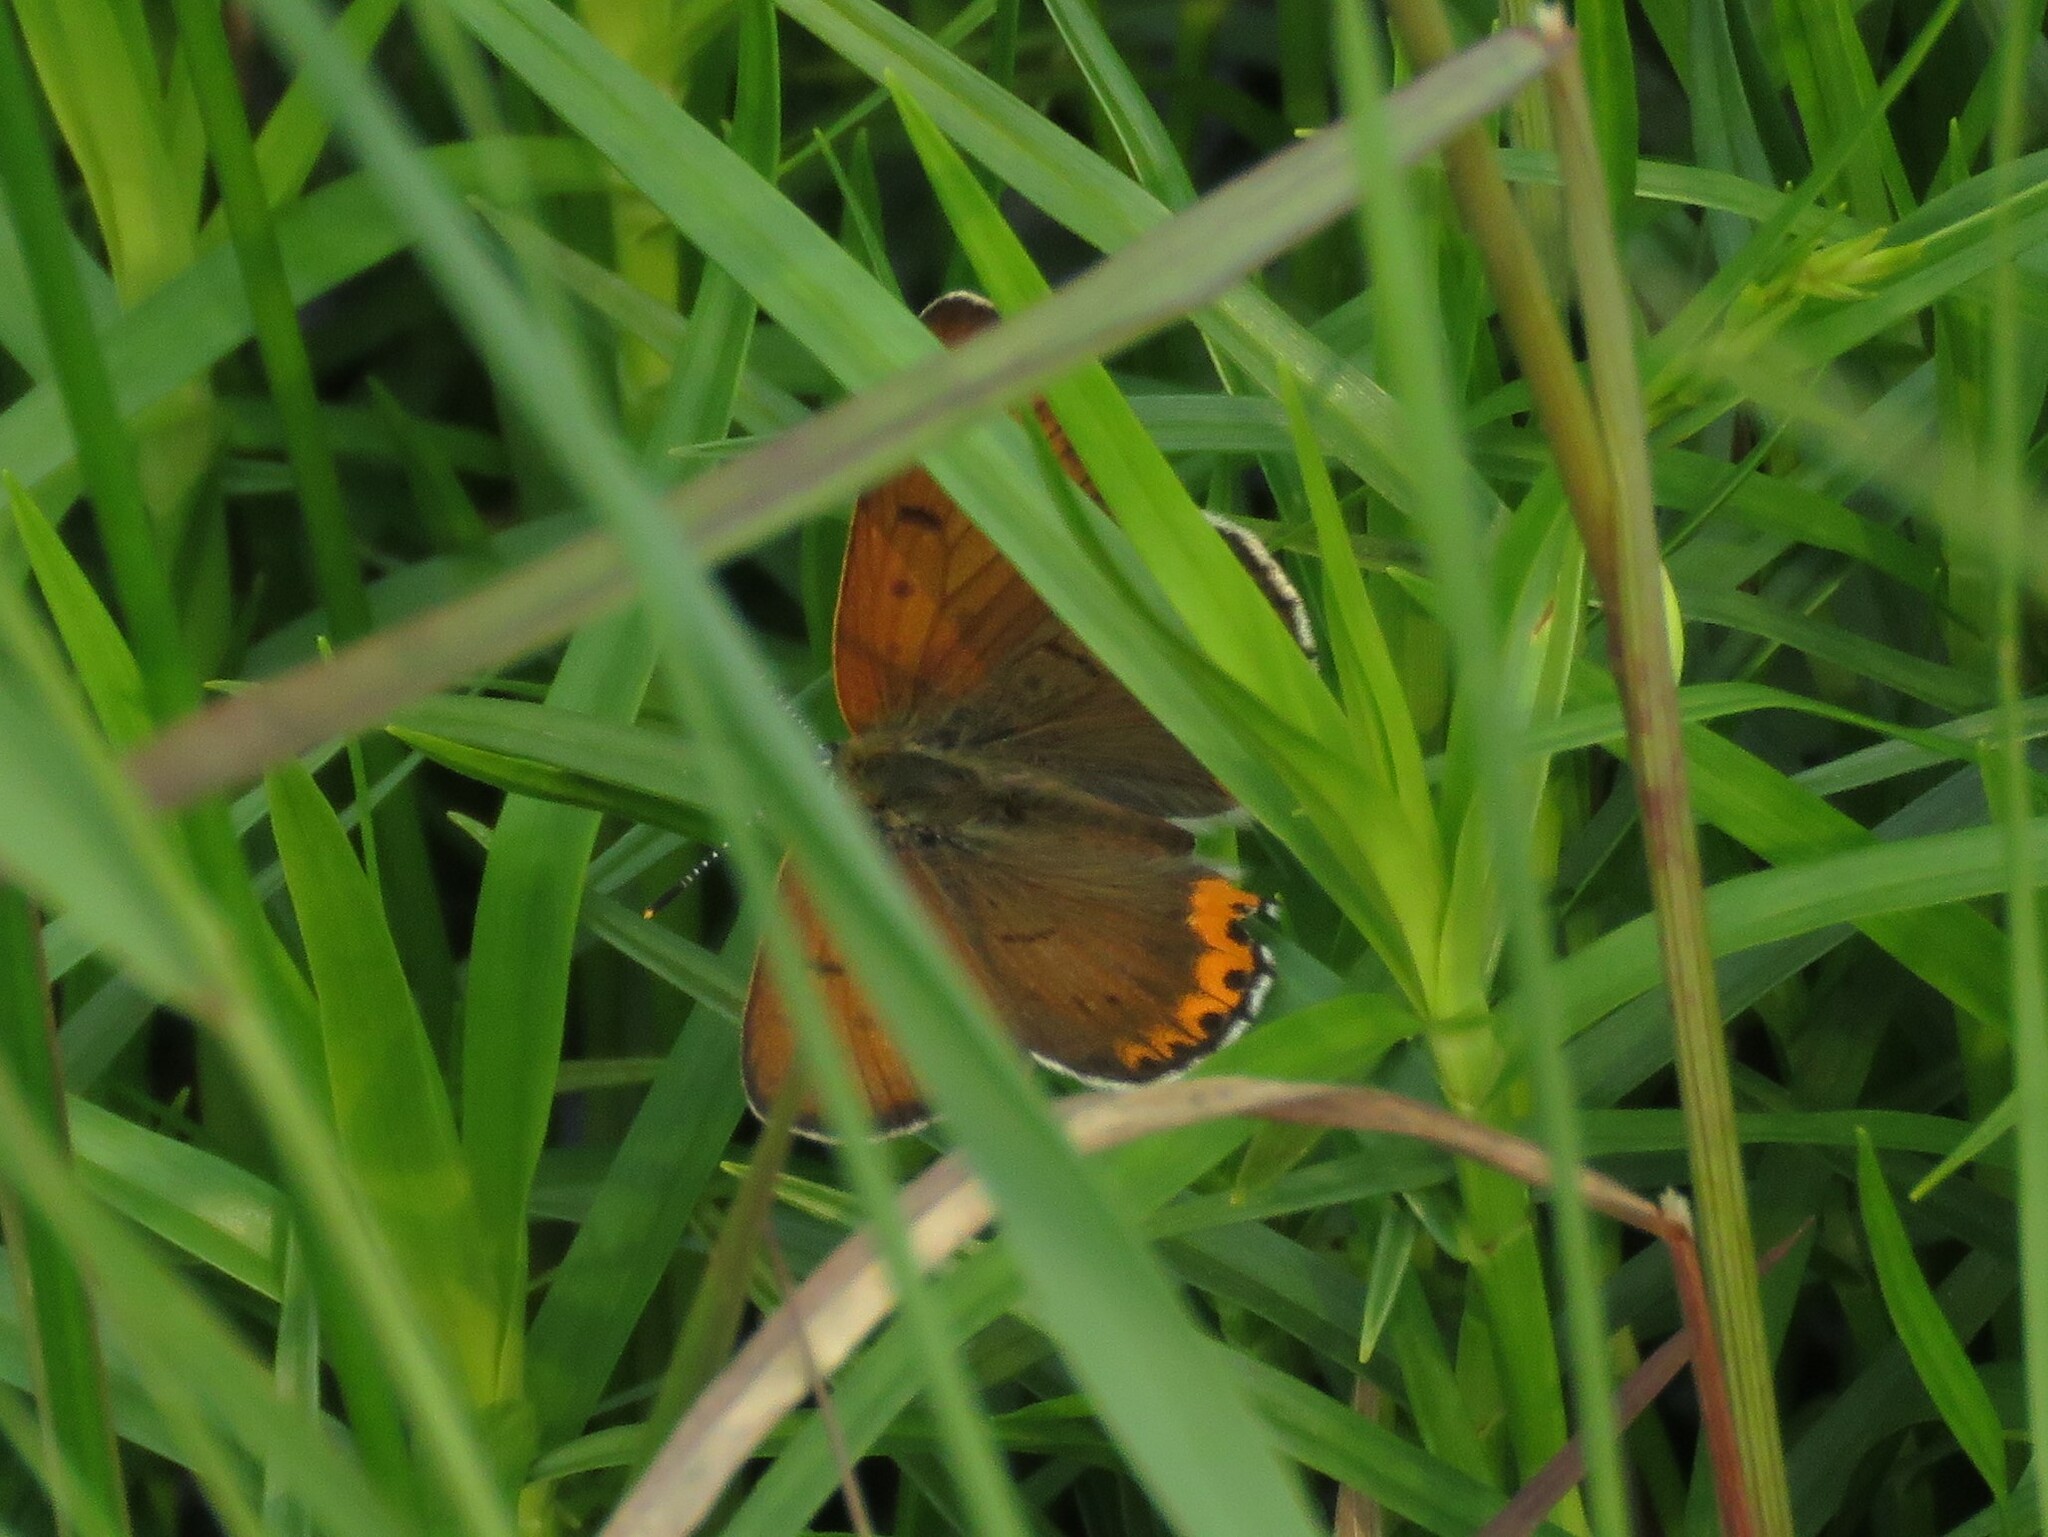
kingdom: Animalia
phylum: Arthropoda
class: Insecta
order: Lepidoptera
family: Lycaenidae
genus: Tharsalea
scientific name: Tharsalea hyllus
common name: Bronze copper
